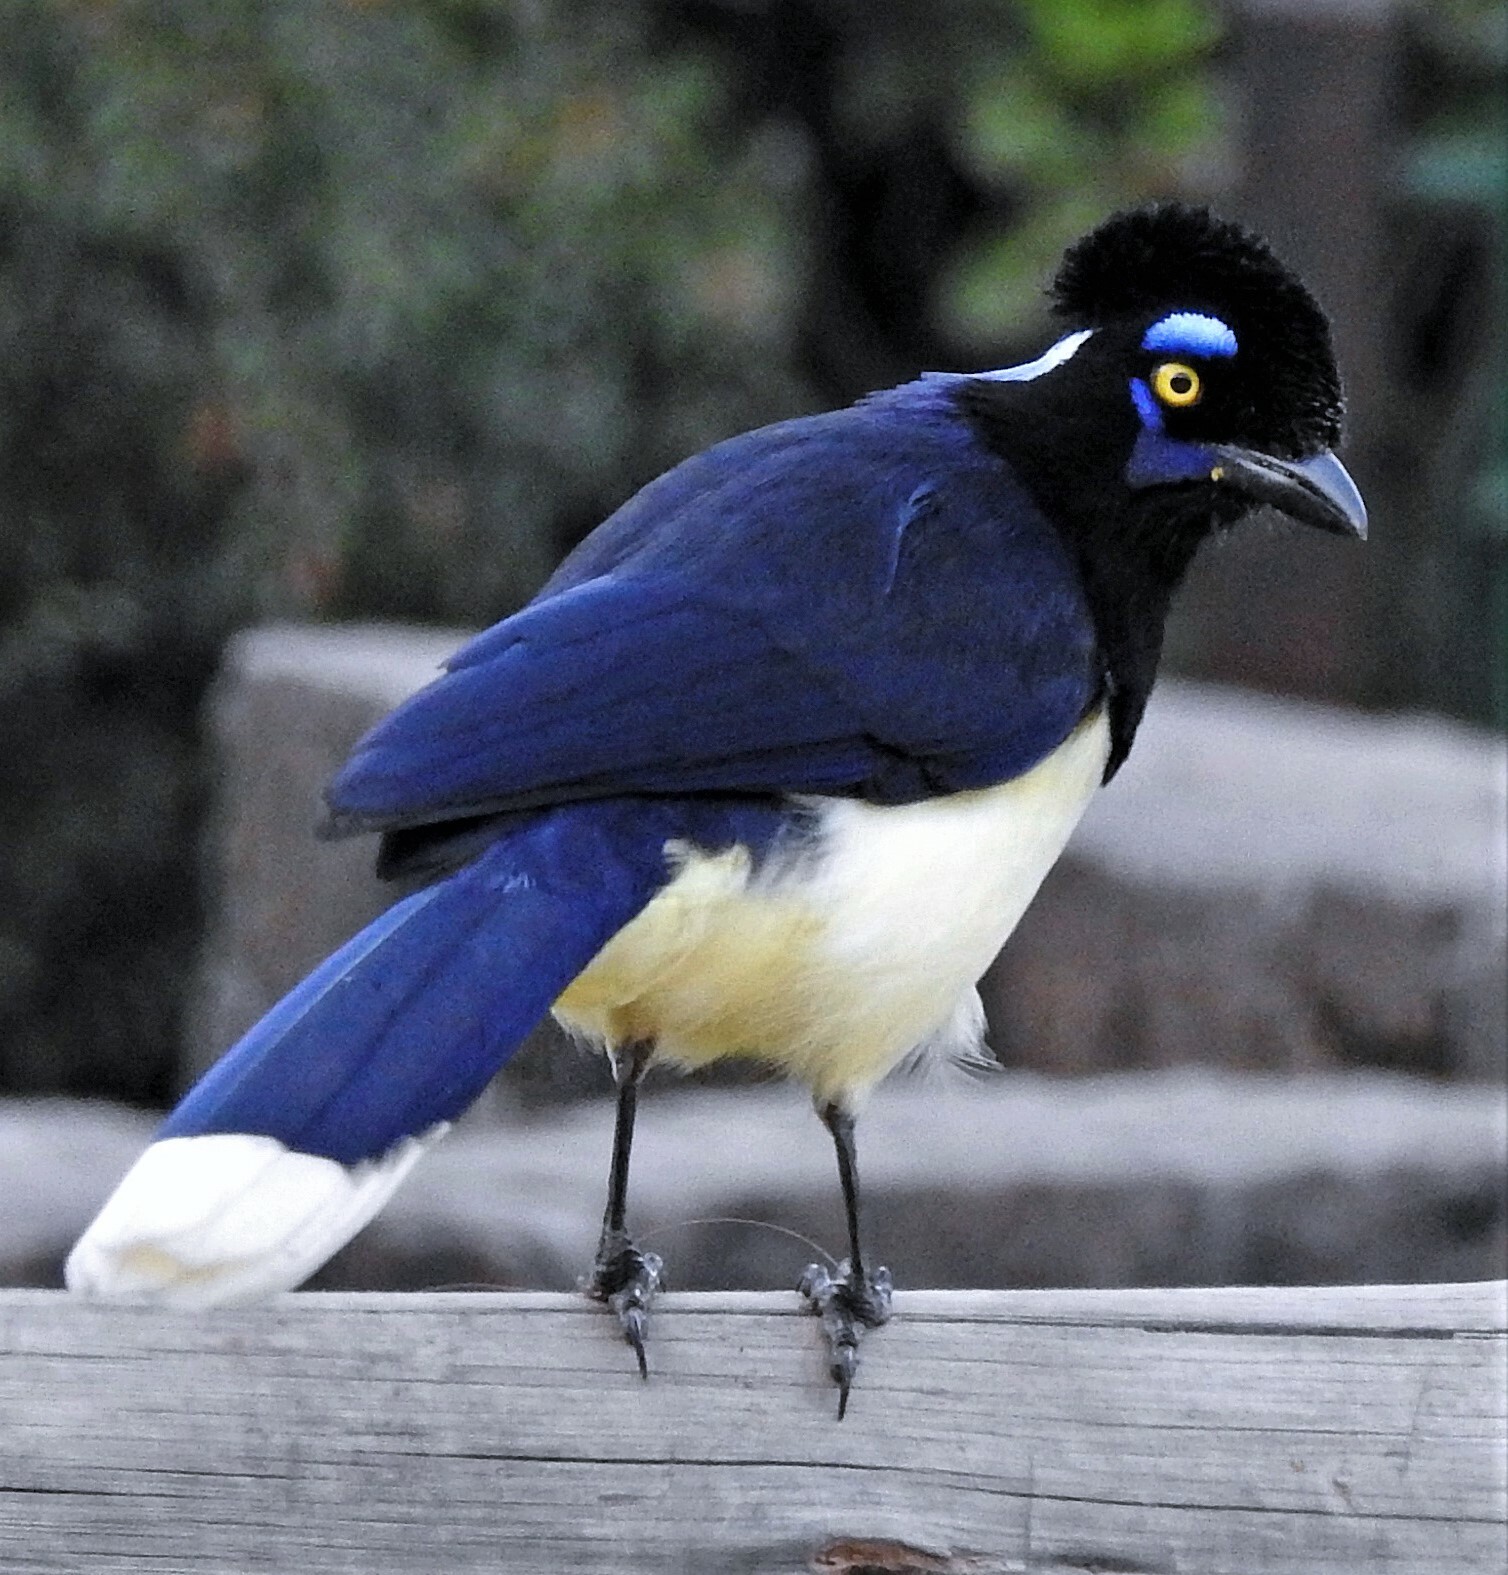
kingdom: Animalia
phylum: Chordata
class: Aves
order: Passeriformes
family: Corvidae
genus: Cyanocorax
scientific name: Cyanocorax chrysops
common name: Plush-crested jay
